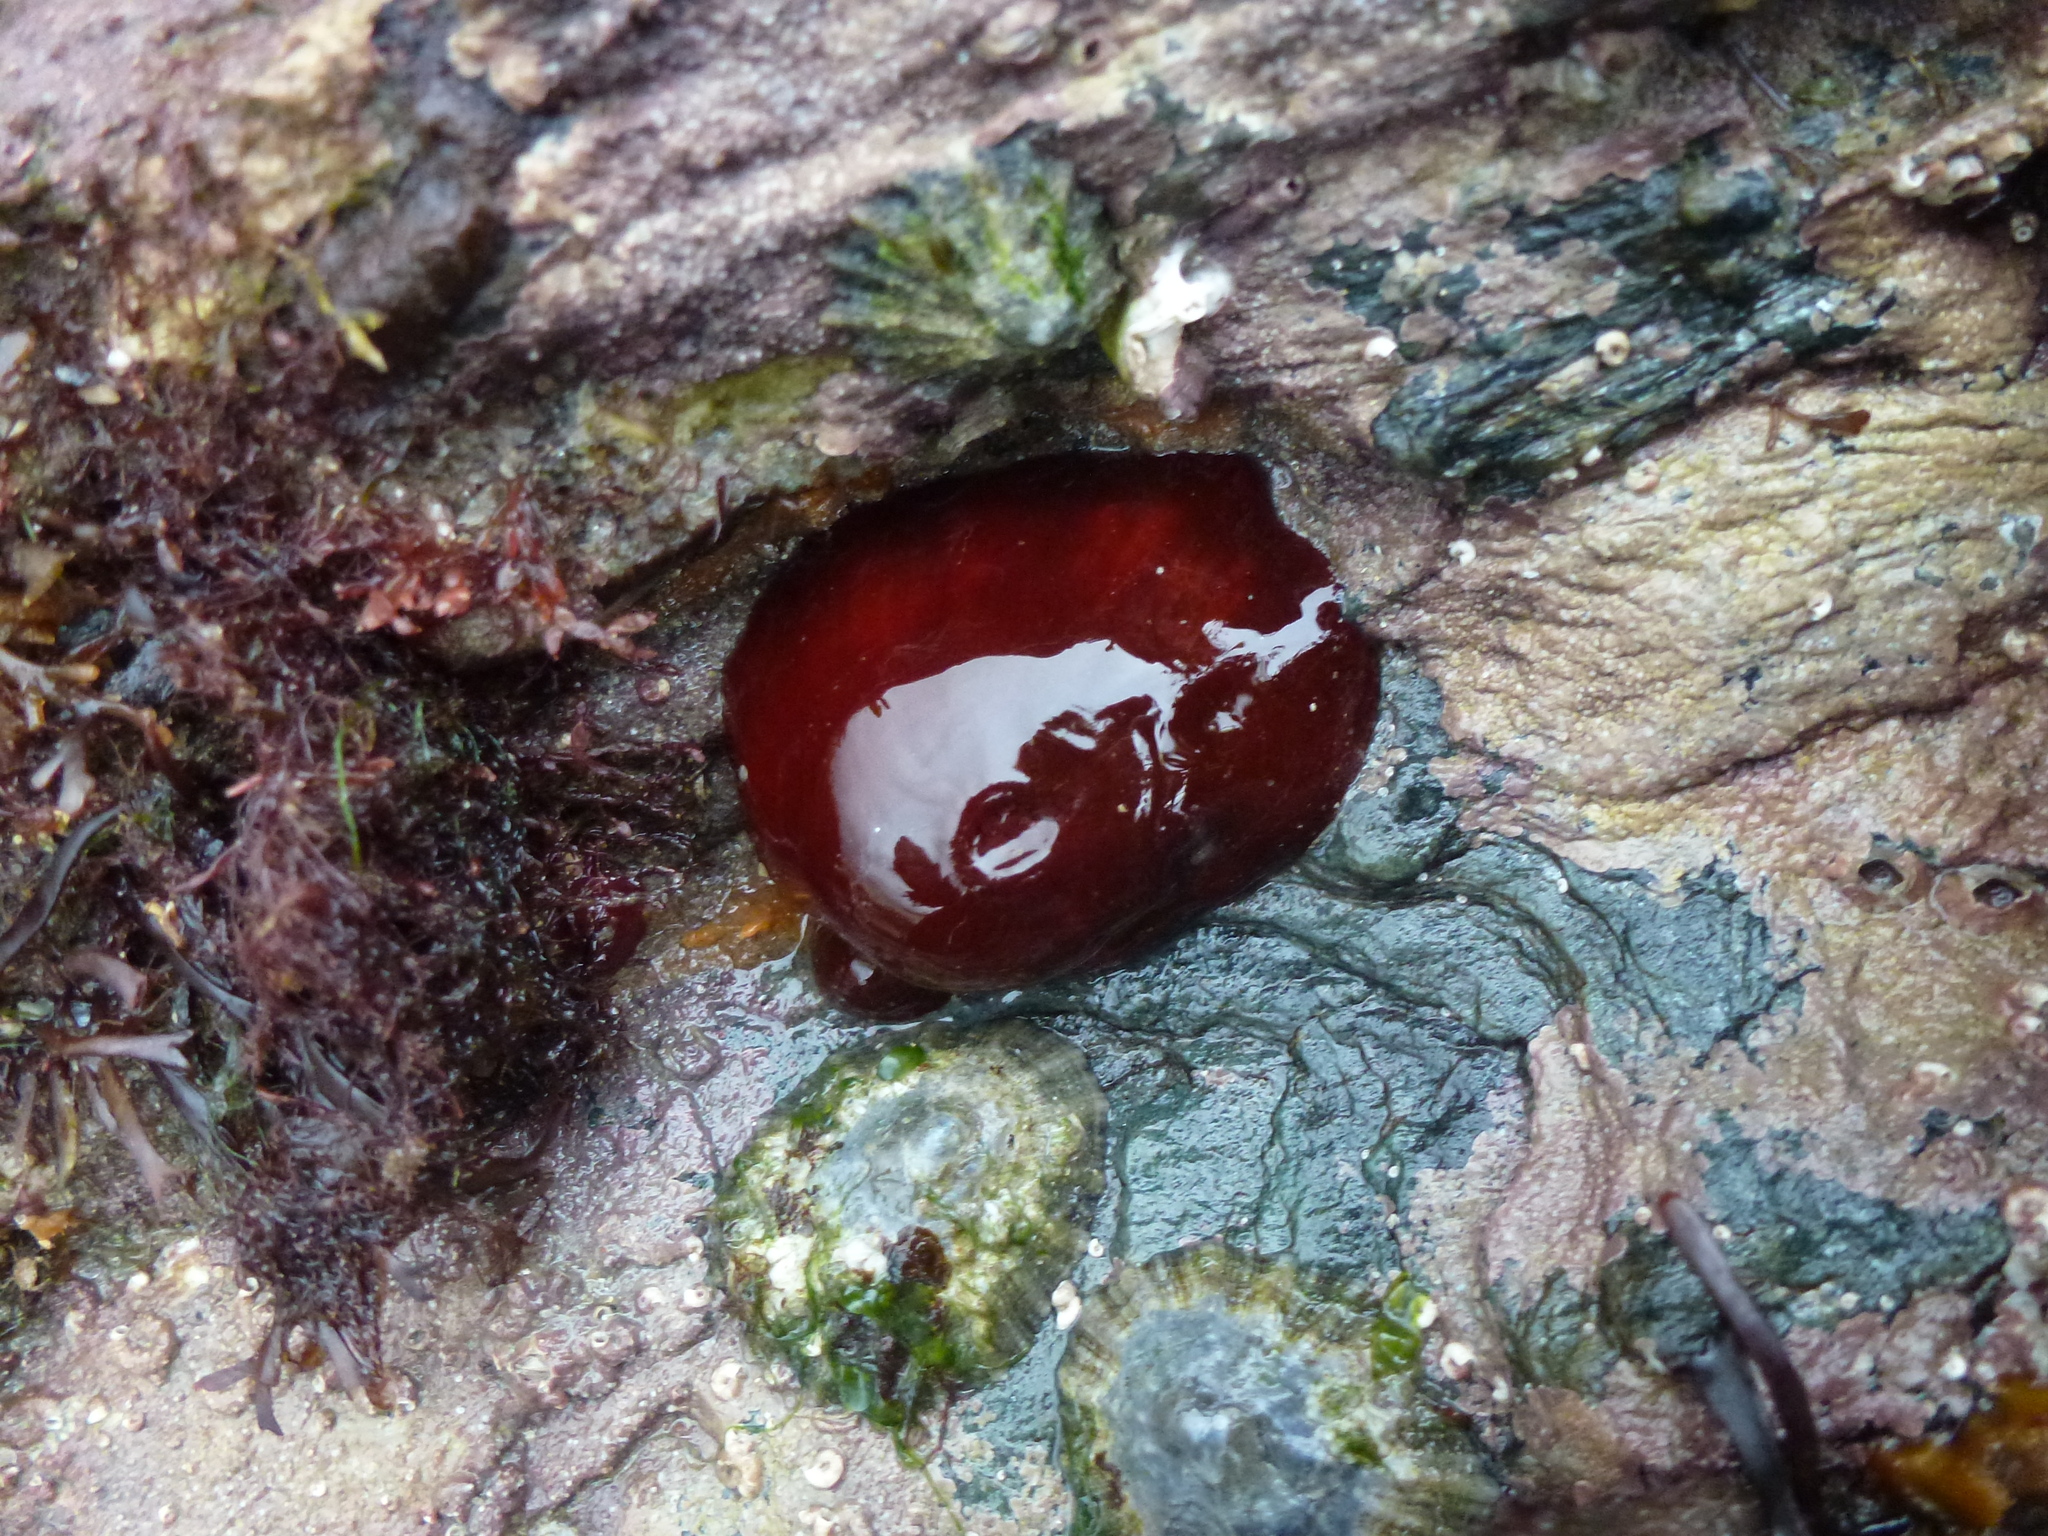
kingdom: Animalia
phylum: Cnidaria
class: Anthozoa
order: Actiniaria
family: Actiniidae
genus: Actinia
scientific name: Actinia equina
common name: Beadlet anemone
